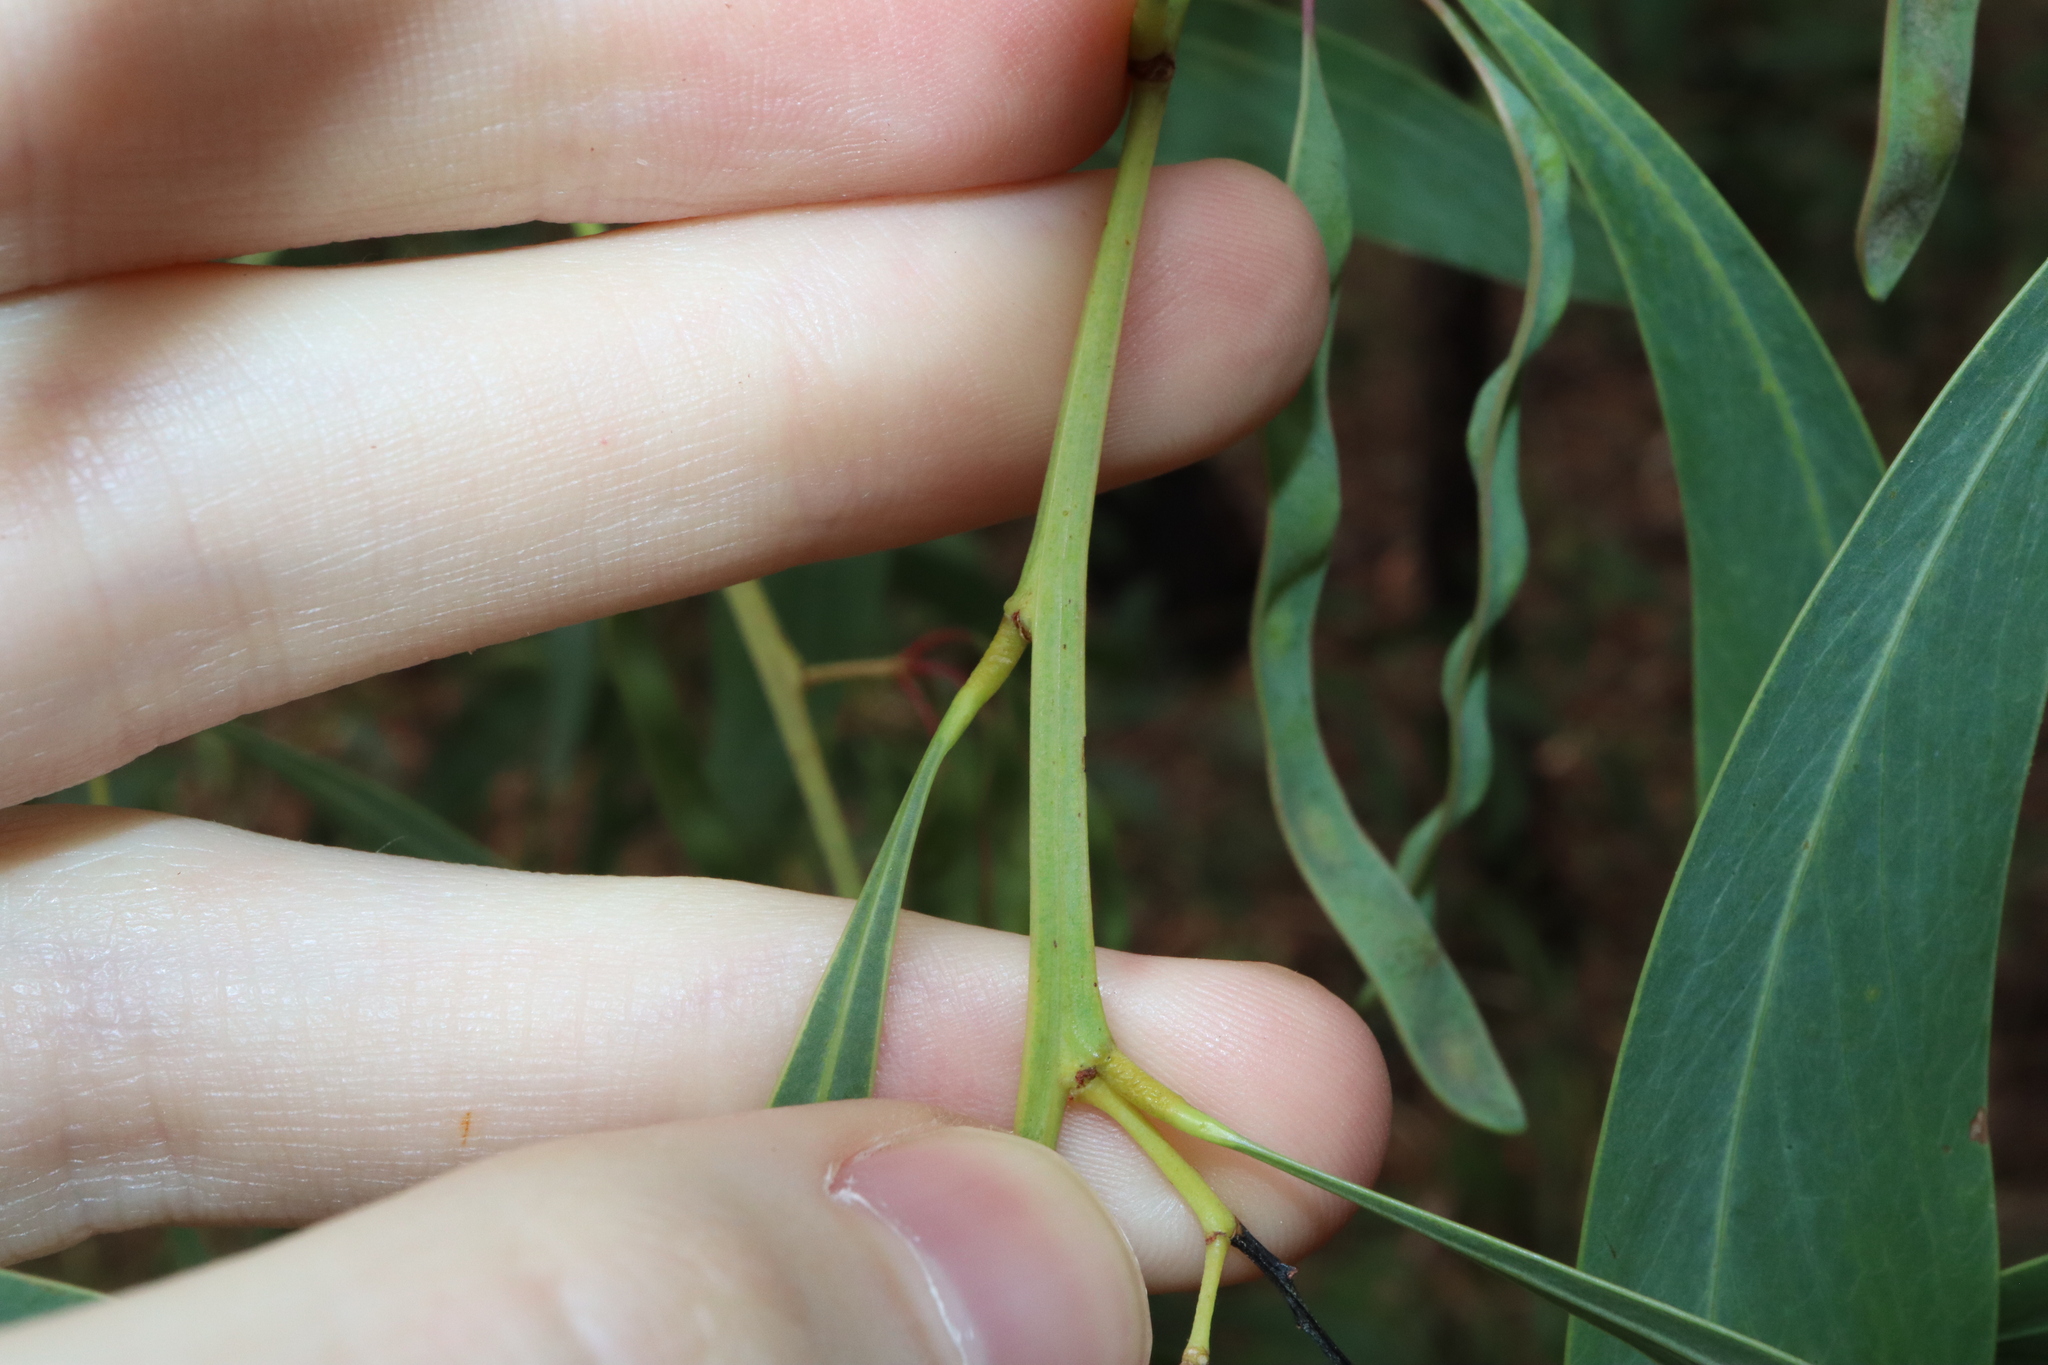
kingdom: Plantae
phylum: Tracheophyta
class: Magnoliopsida
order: Fabales
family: Fabaceae
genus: Acacia
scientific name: Acacia falcata
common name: Burra acacia
